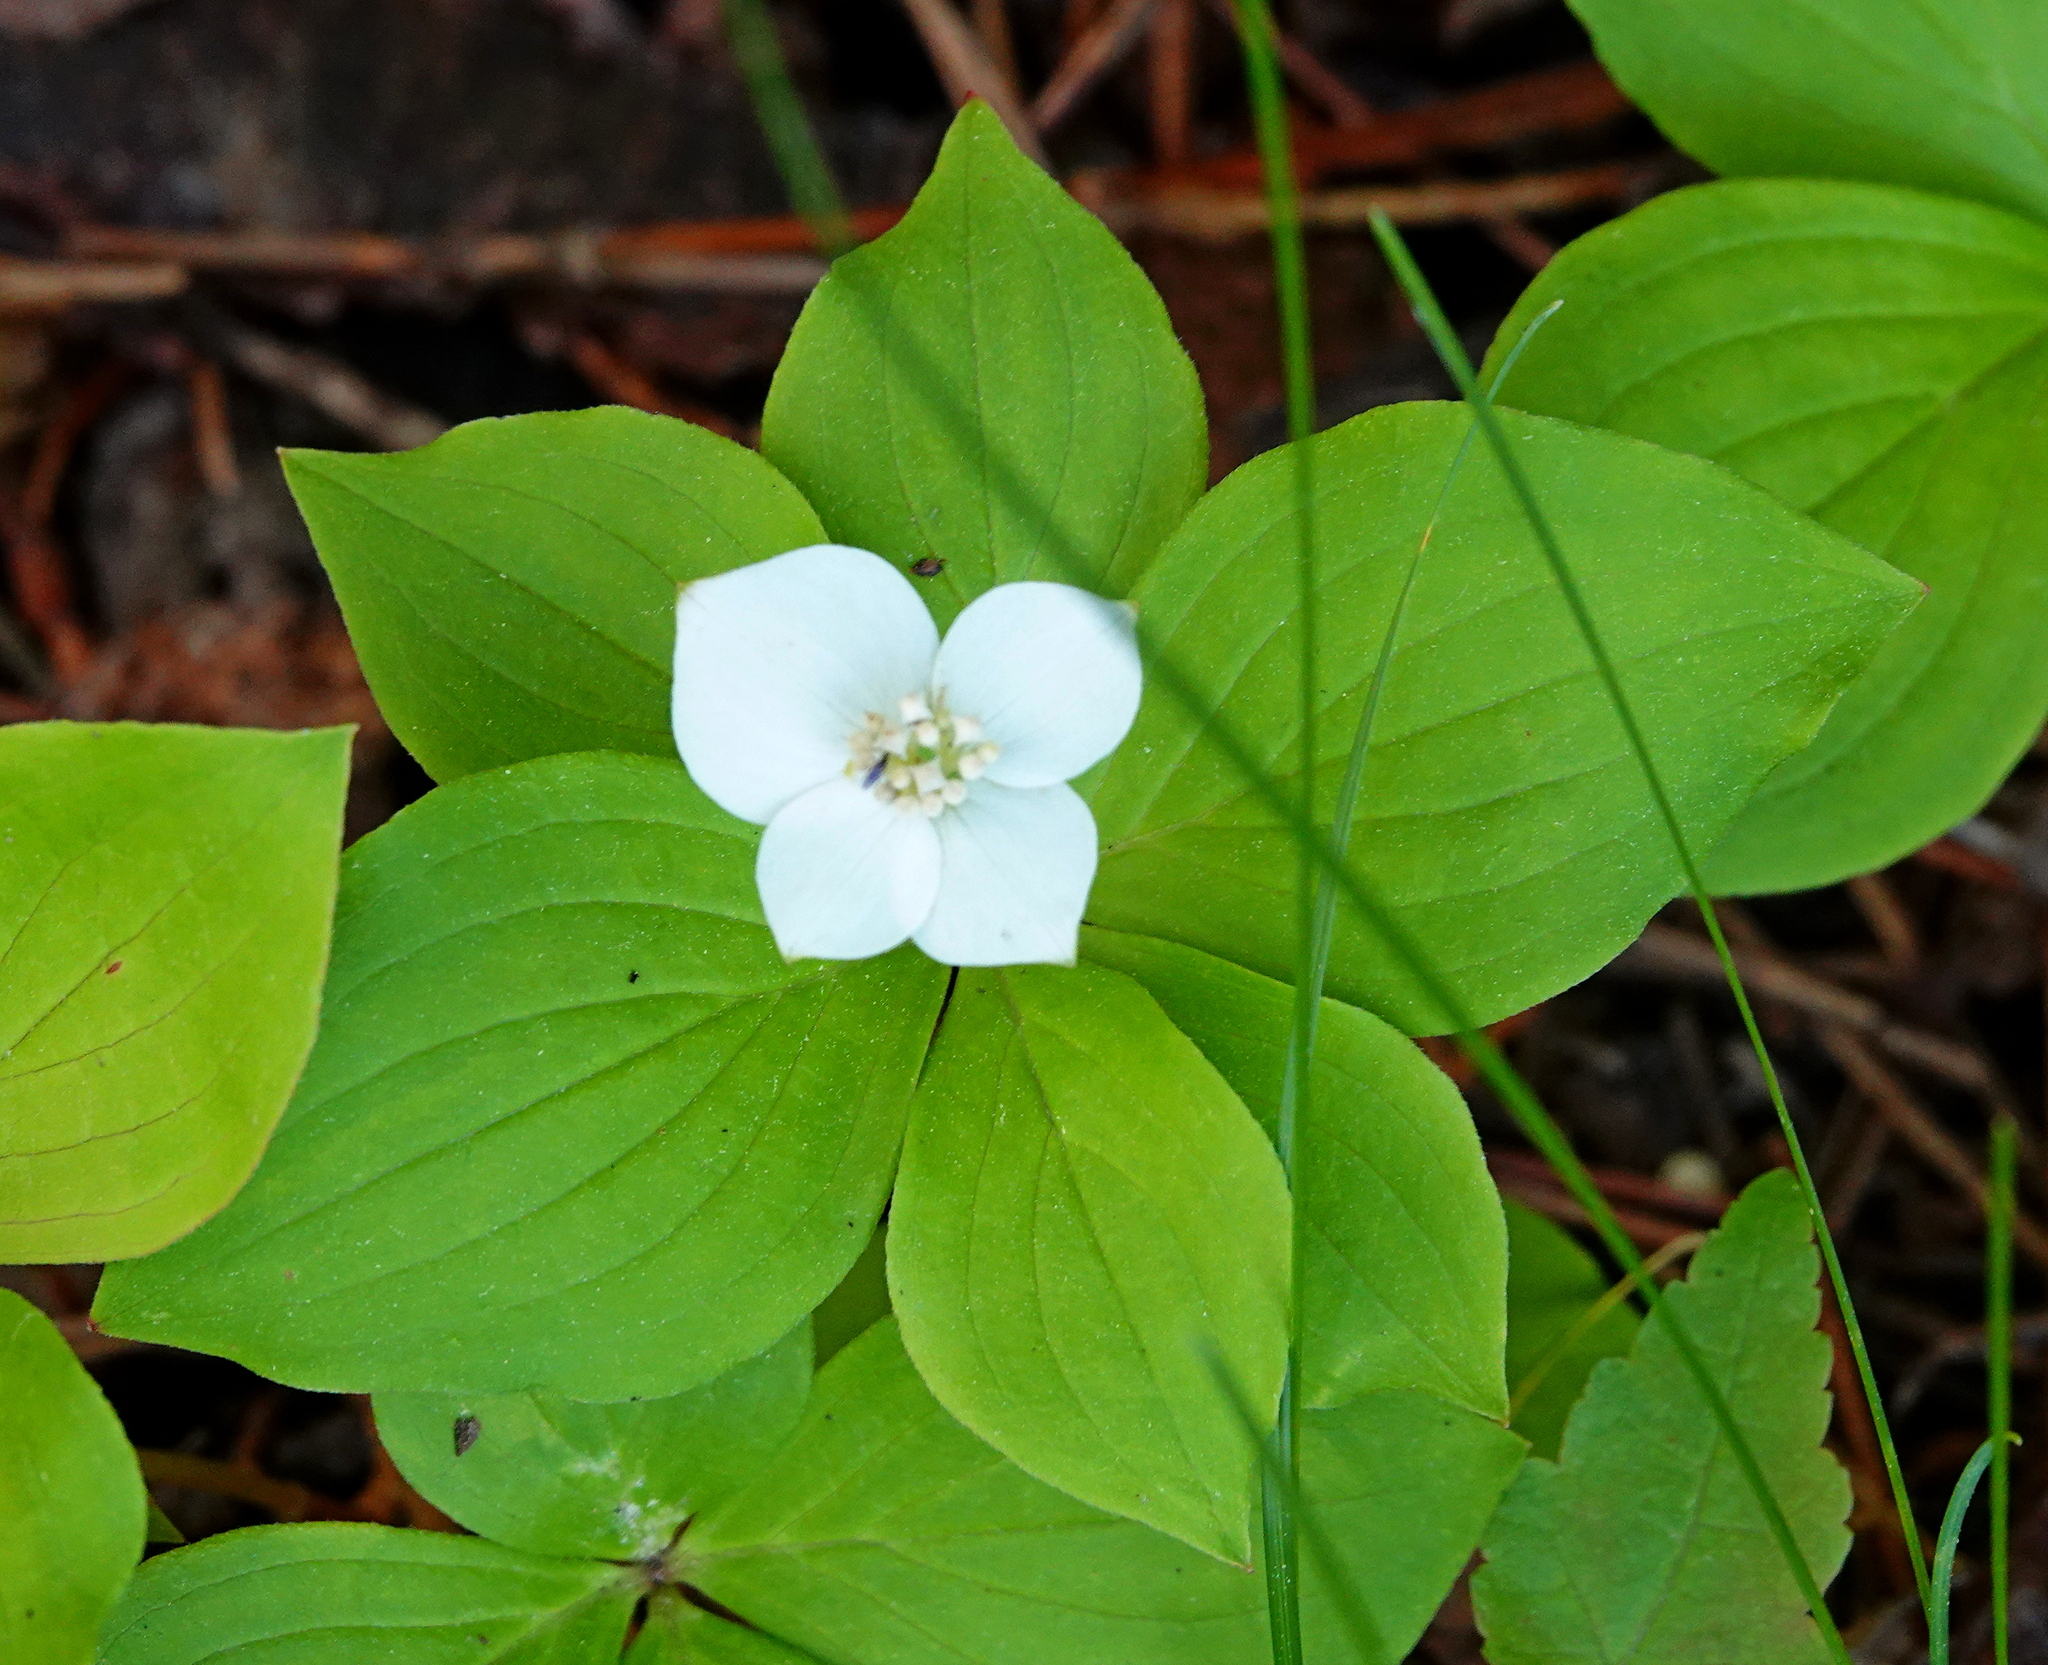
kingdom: Plantae
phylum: Tracheophyta
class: Magnoliopsida
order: Cornales
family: Cornaceae
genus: Cornus
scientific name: Cornus canadensis
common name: Creeping dogwood
